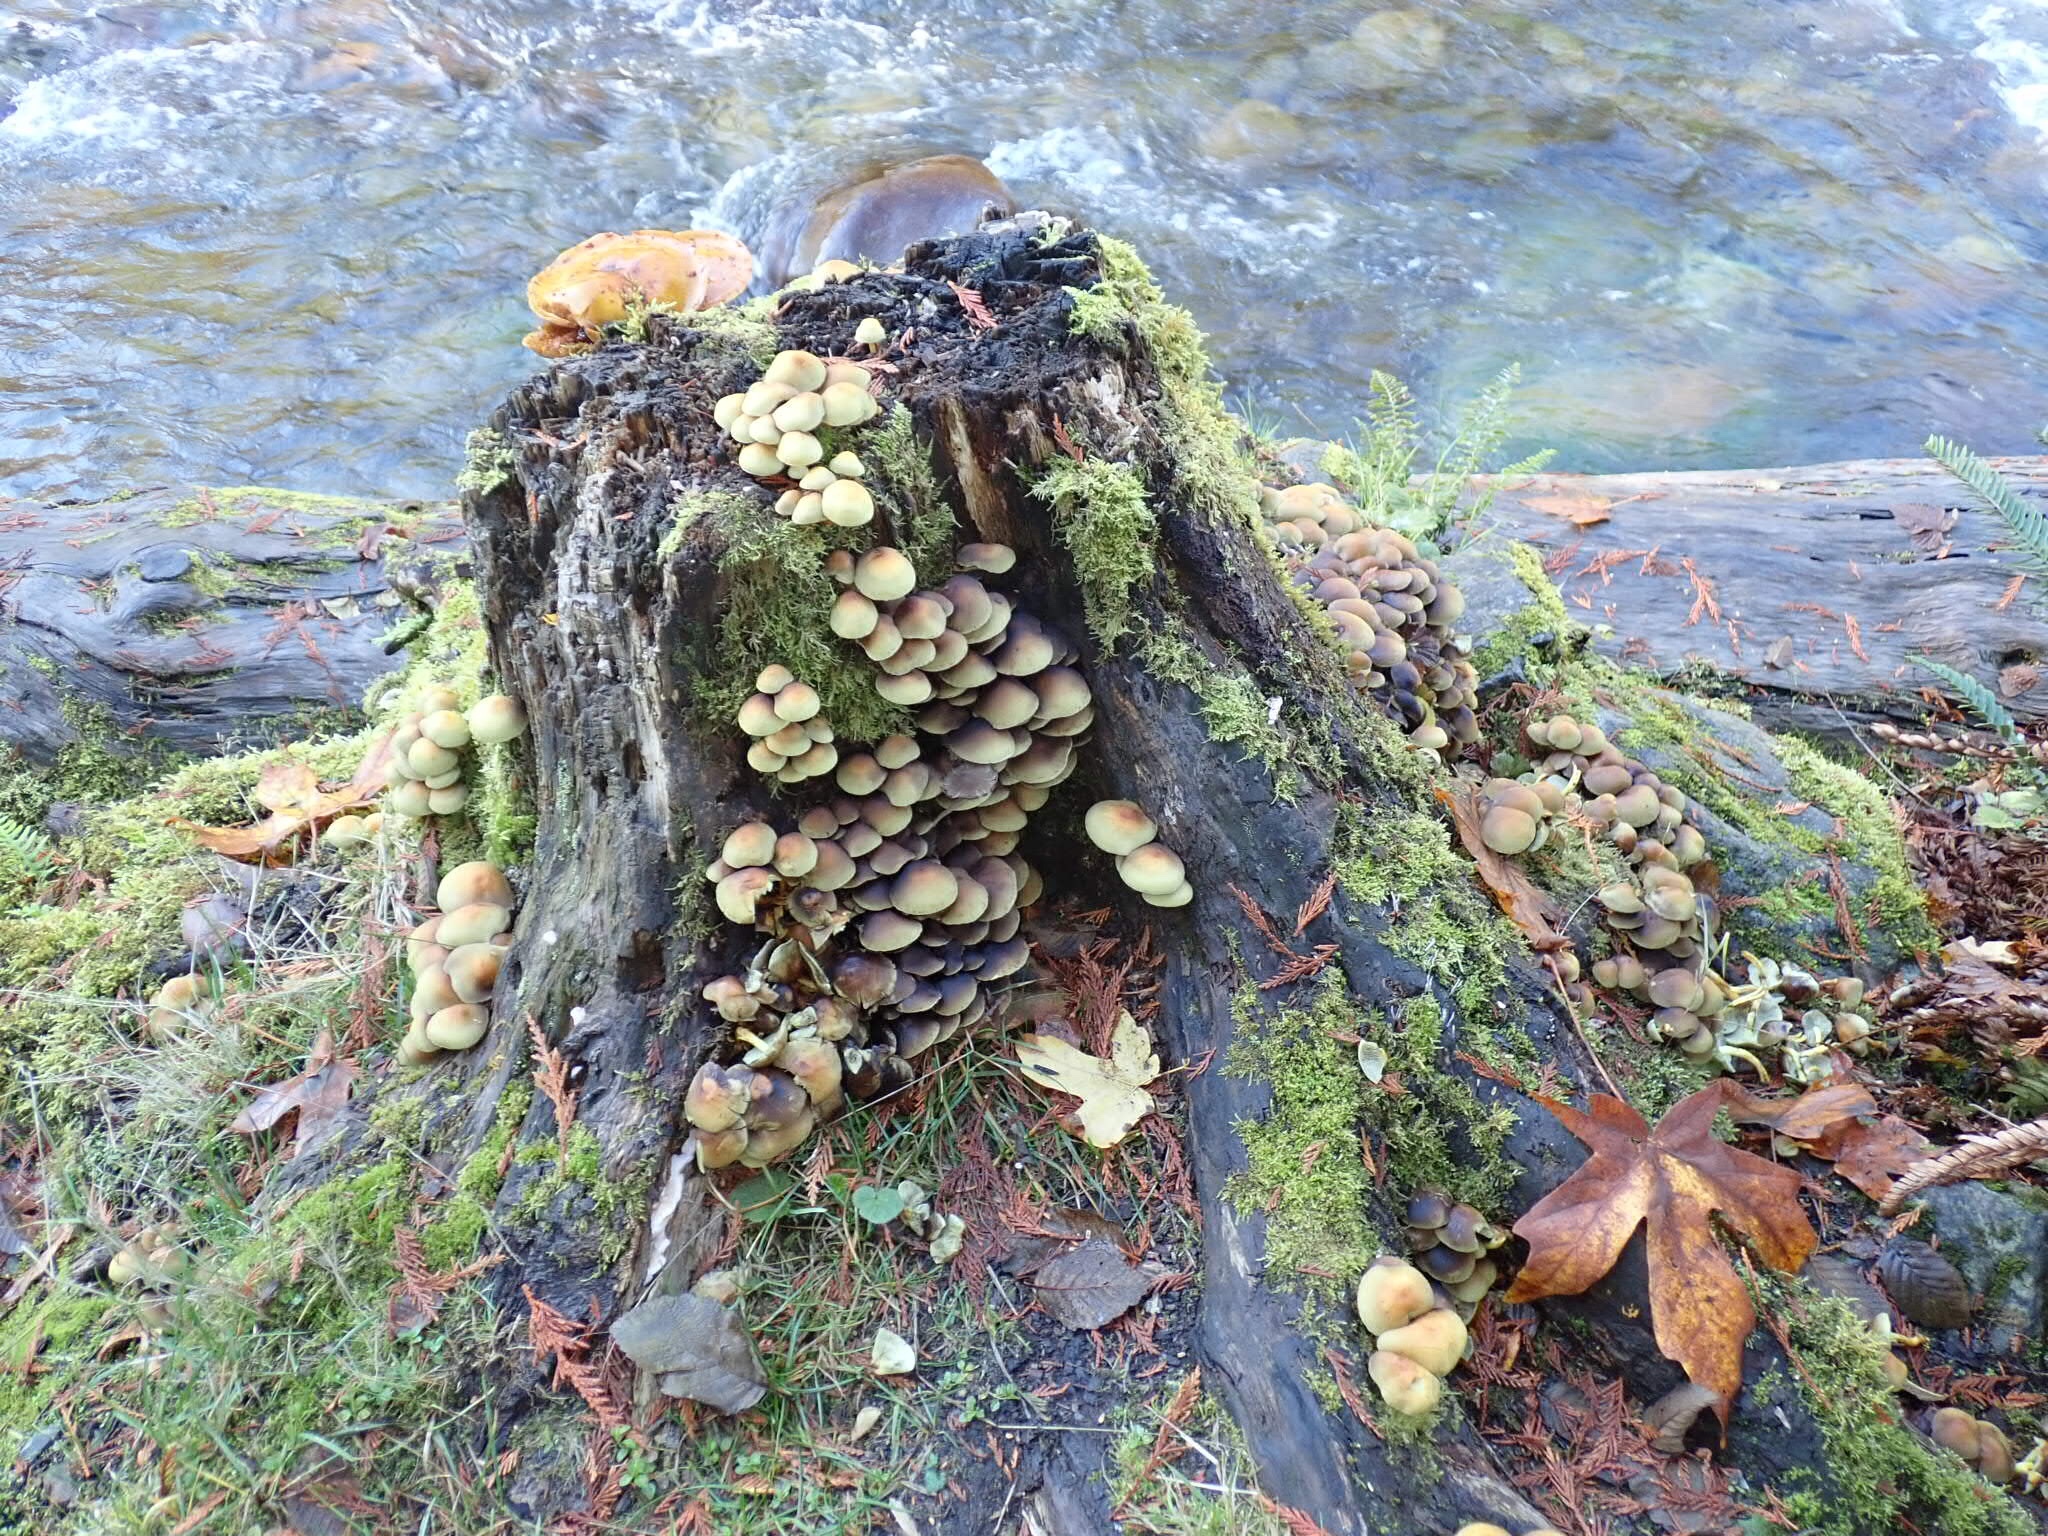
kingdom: Fungi
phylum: Basidiomycota
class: Agaricomycetes
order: Agaricales
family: Strophariaceae
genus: Hypholoma
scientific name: Hypholoma fasciculare
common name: Sulphur tuft
